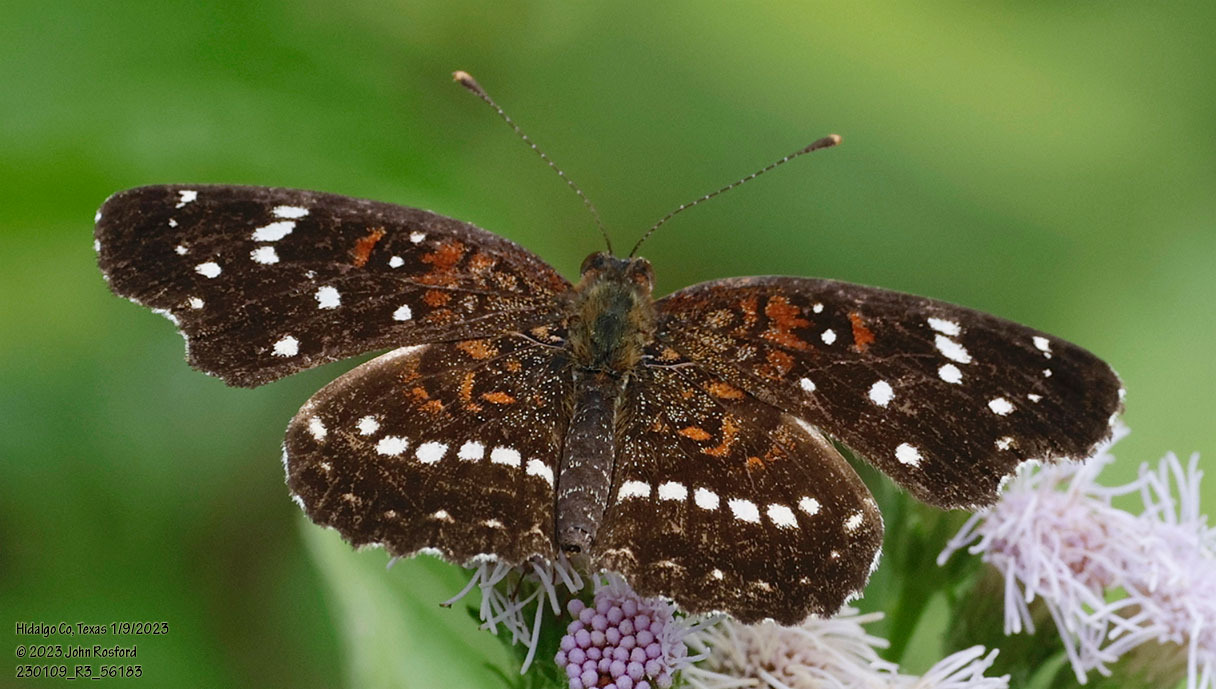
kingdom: Animalia
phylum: Arthropoda
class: Insecta
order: Lepidoptera
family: Nymphalidae
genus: Anthanassa
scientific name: Anthanassa texana
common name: Texan crescent
